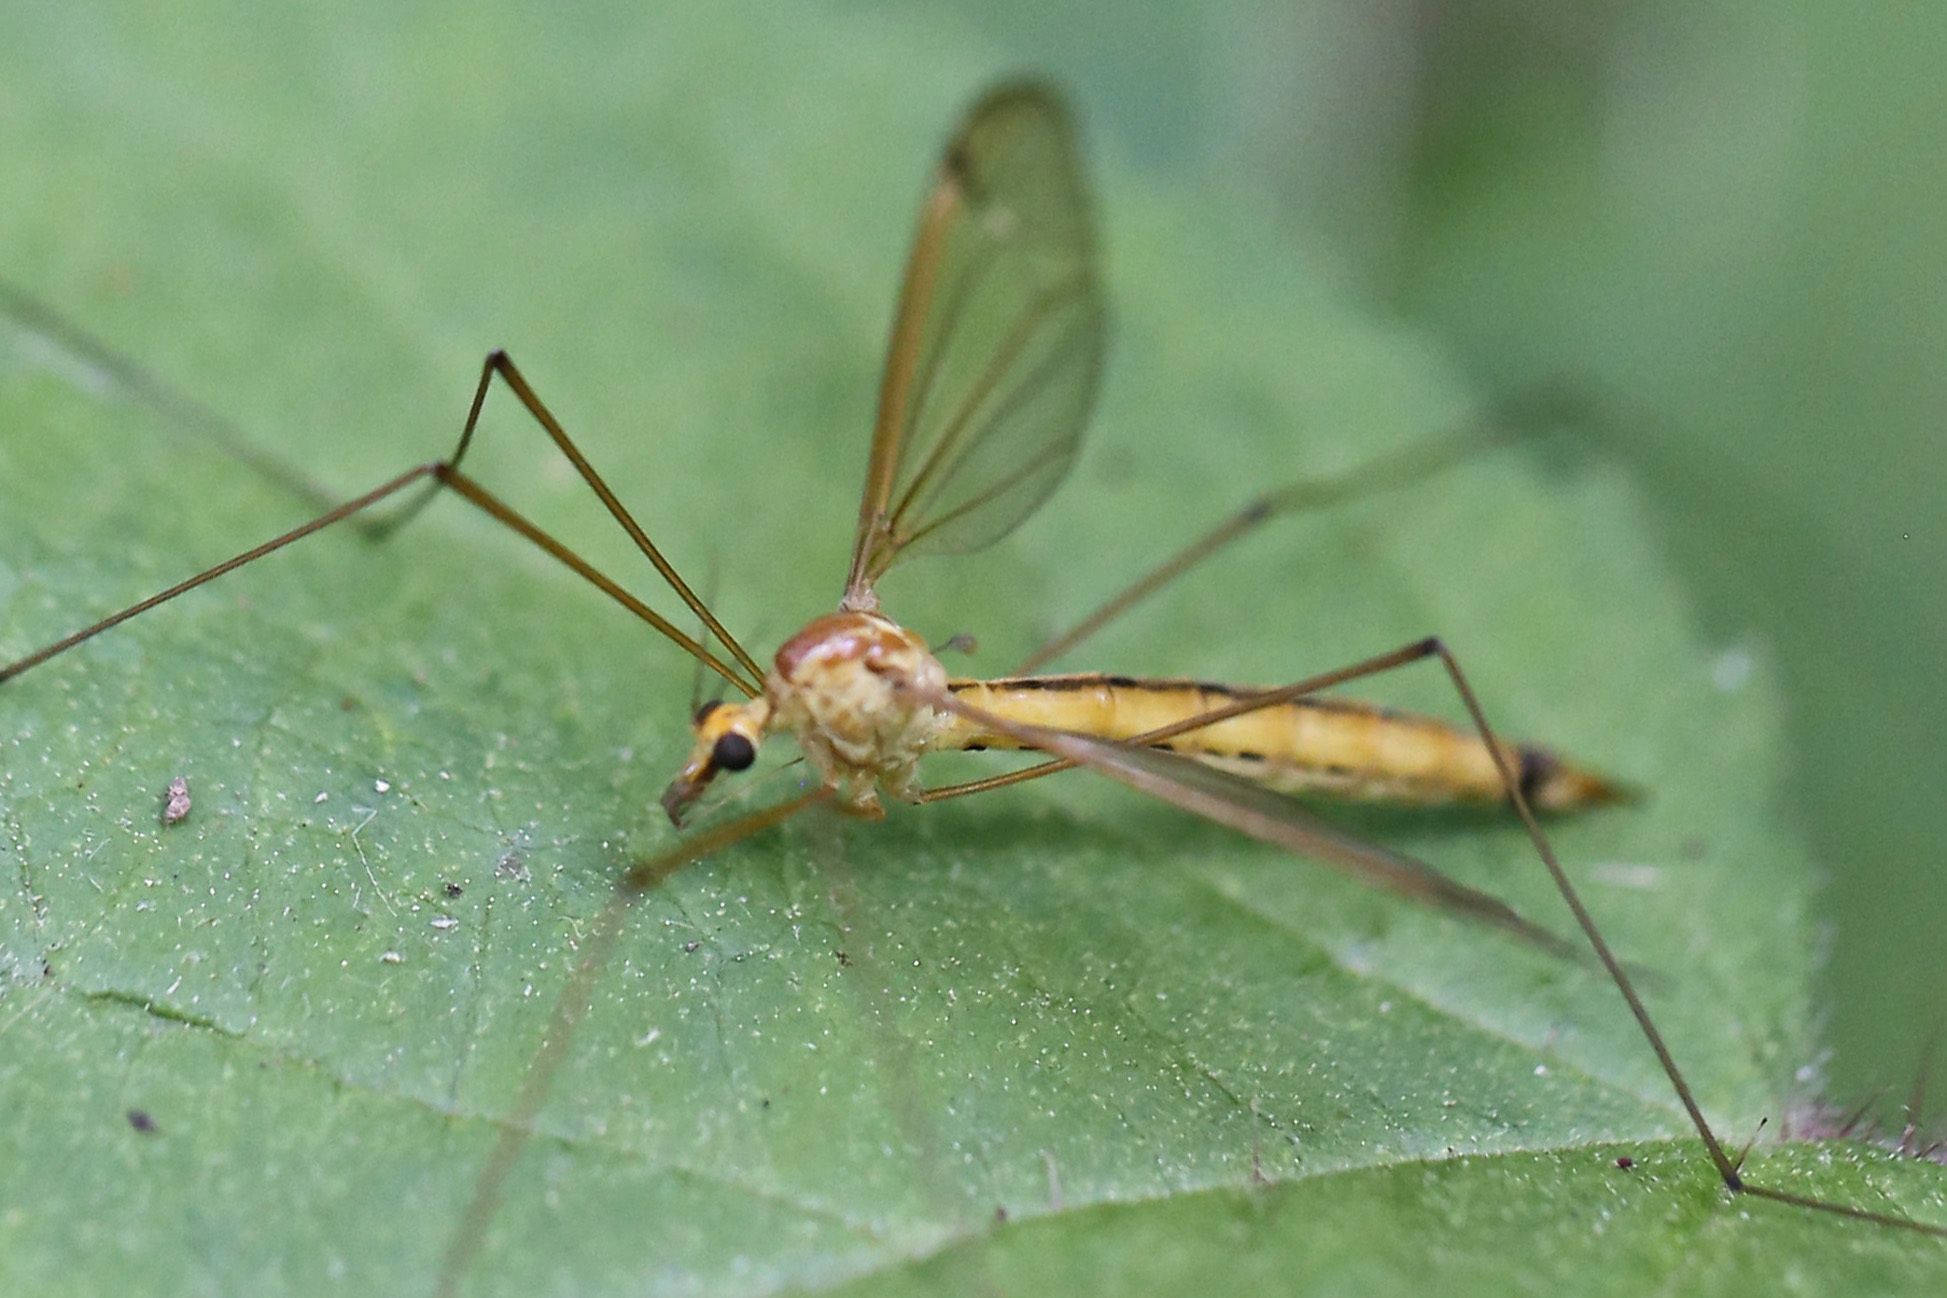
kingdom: Animalia
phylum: Arthropoda
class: Insecta
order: Diptera
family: Tipulidae
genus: Nephrotoma
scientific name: Nephrotoma eucera
